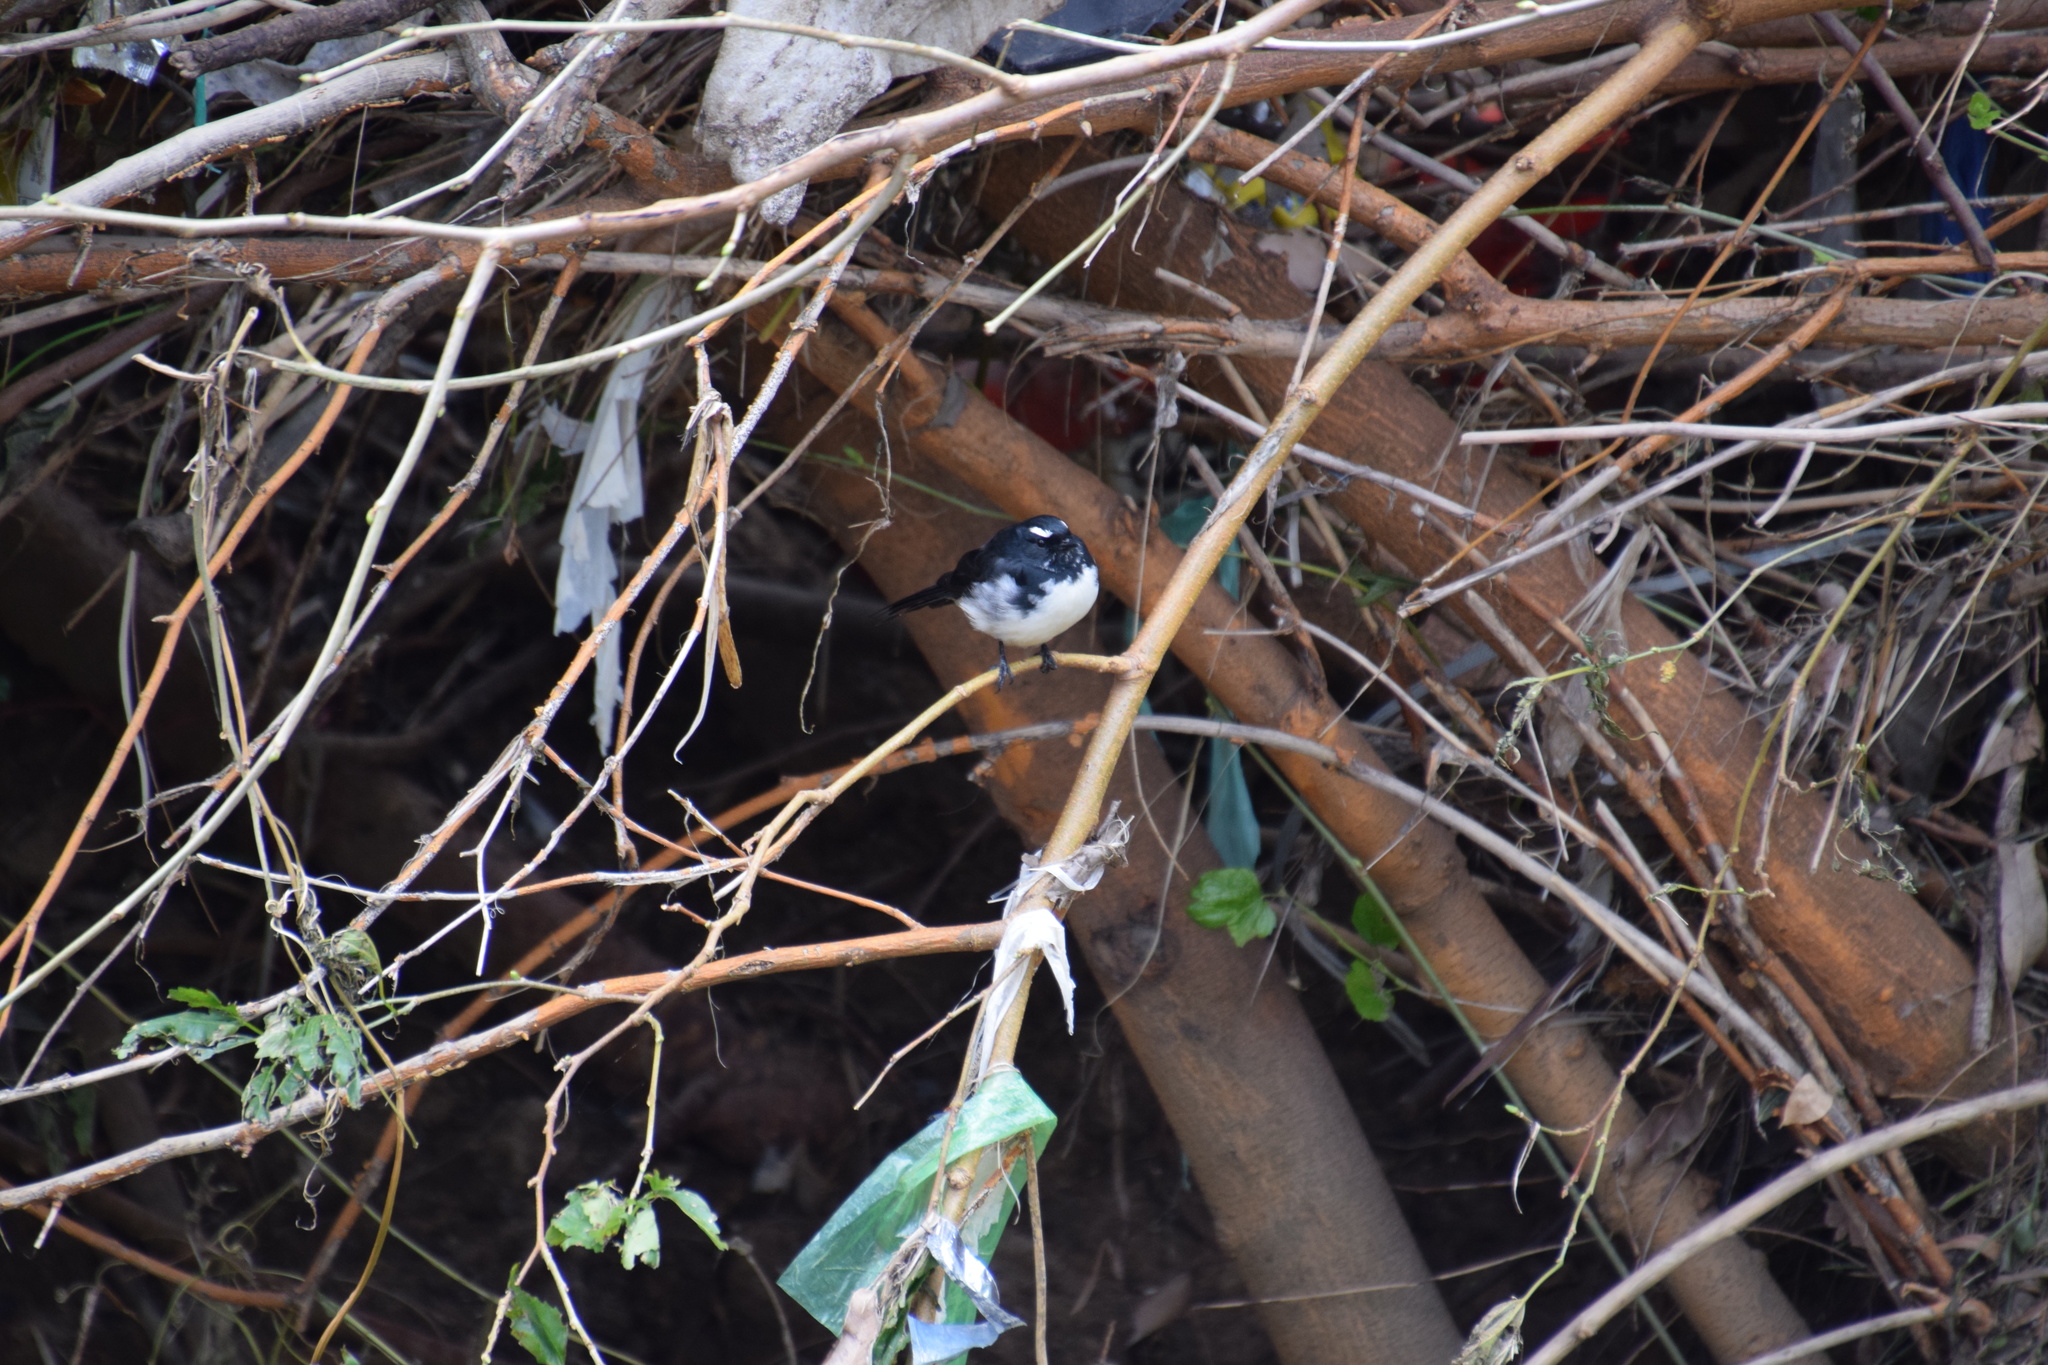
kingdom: Animalia
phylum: Chordata
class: Aves
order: Passeriformes
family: Rhipiduridae
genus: Rhipidura
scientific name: Rhipidura leucophrys
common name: Willie wagtail
